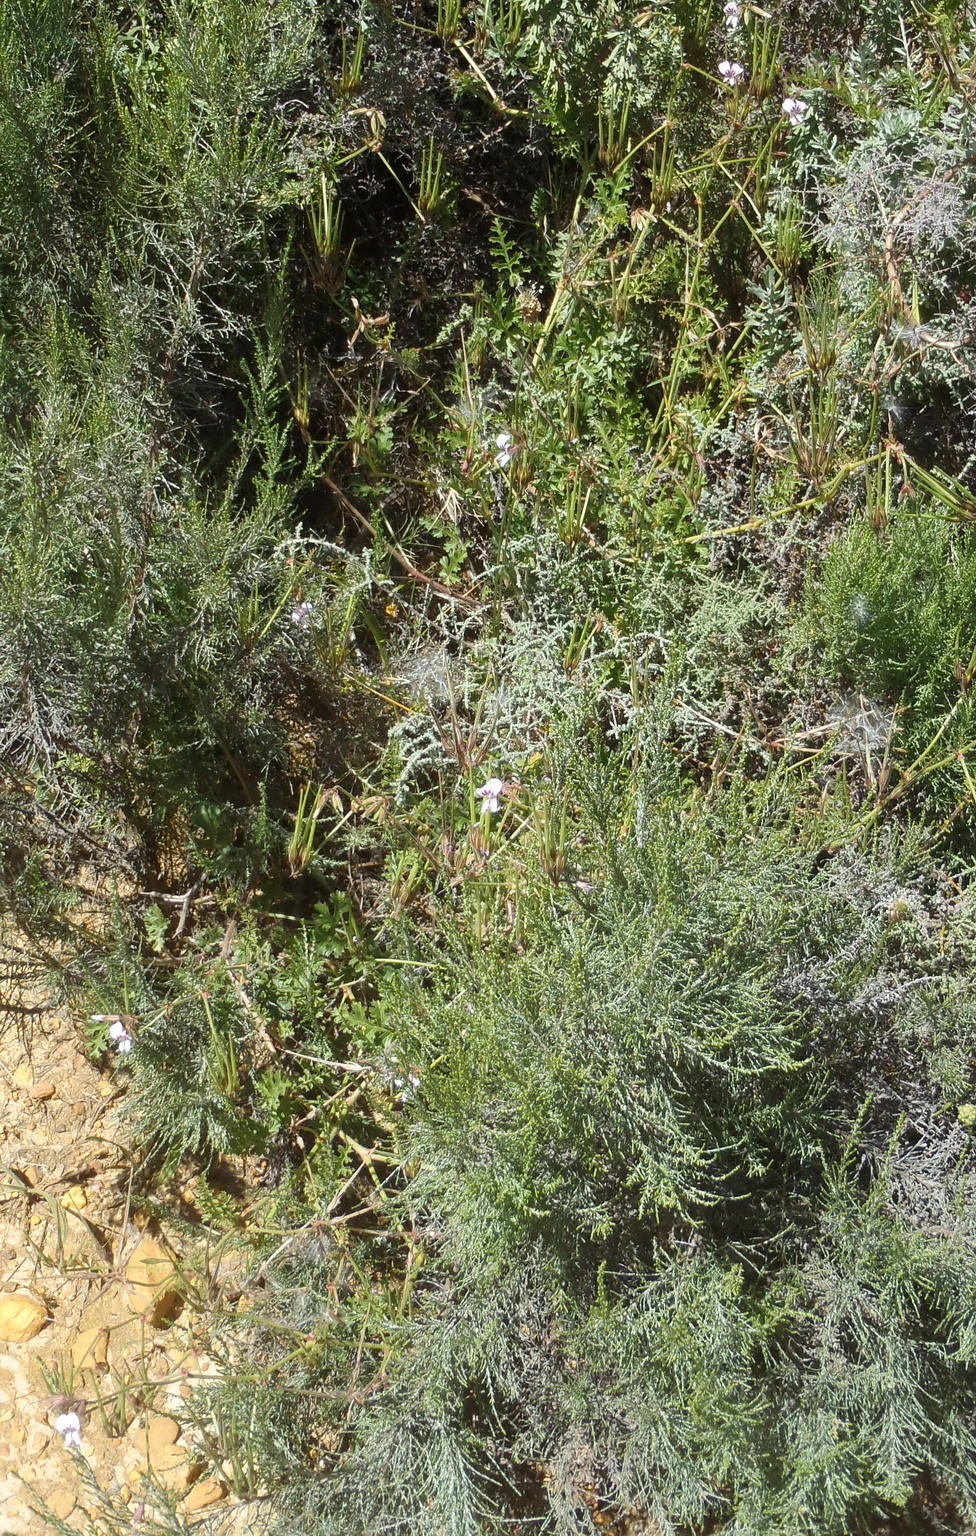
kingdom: Plantae
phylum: Tracheophyta
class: Magnoliopsida
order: Geraniales
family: Geraniaceae
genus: Pelargonium
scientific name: Pelargonium myrrhifolium
